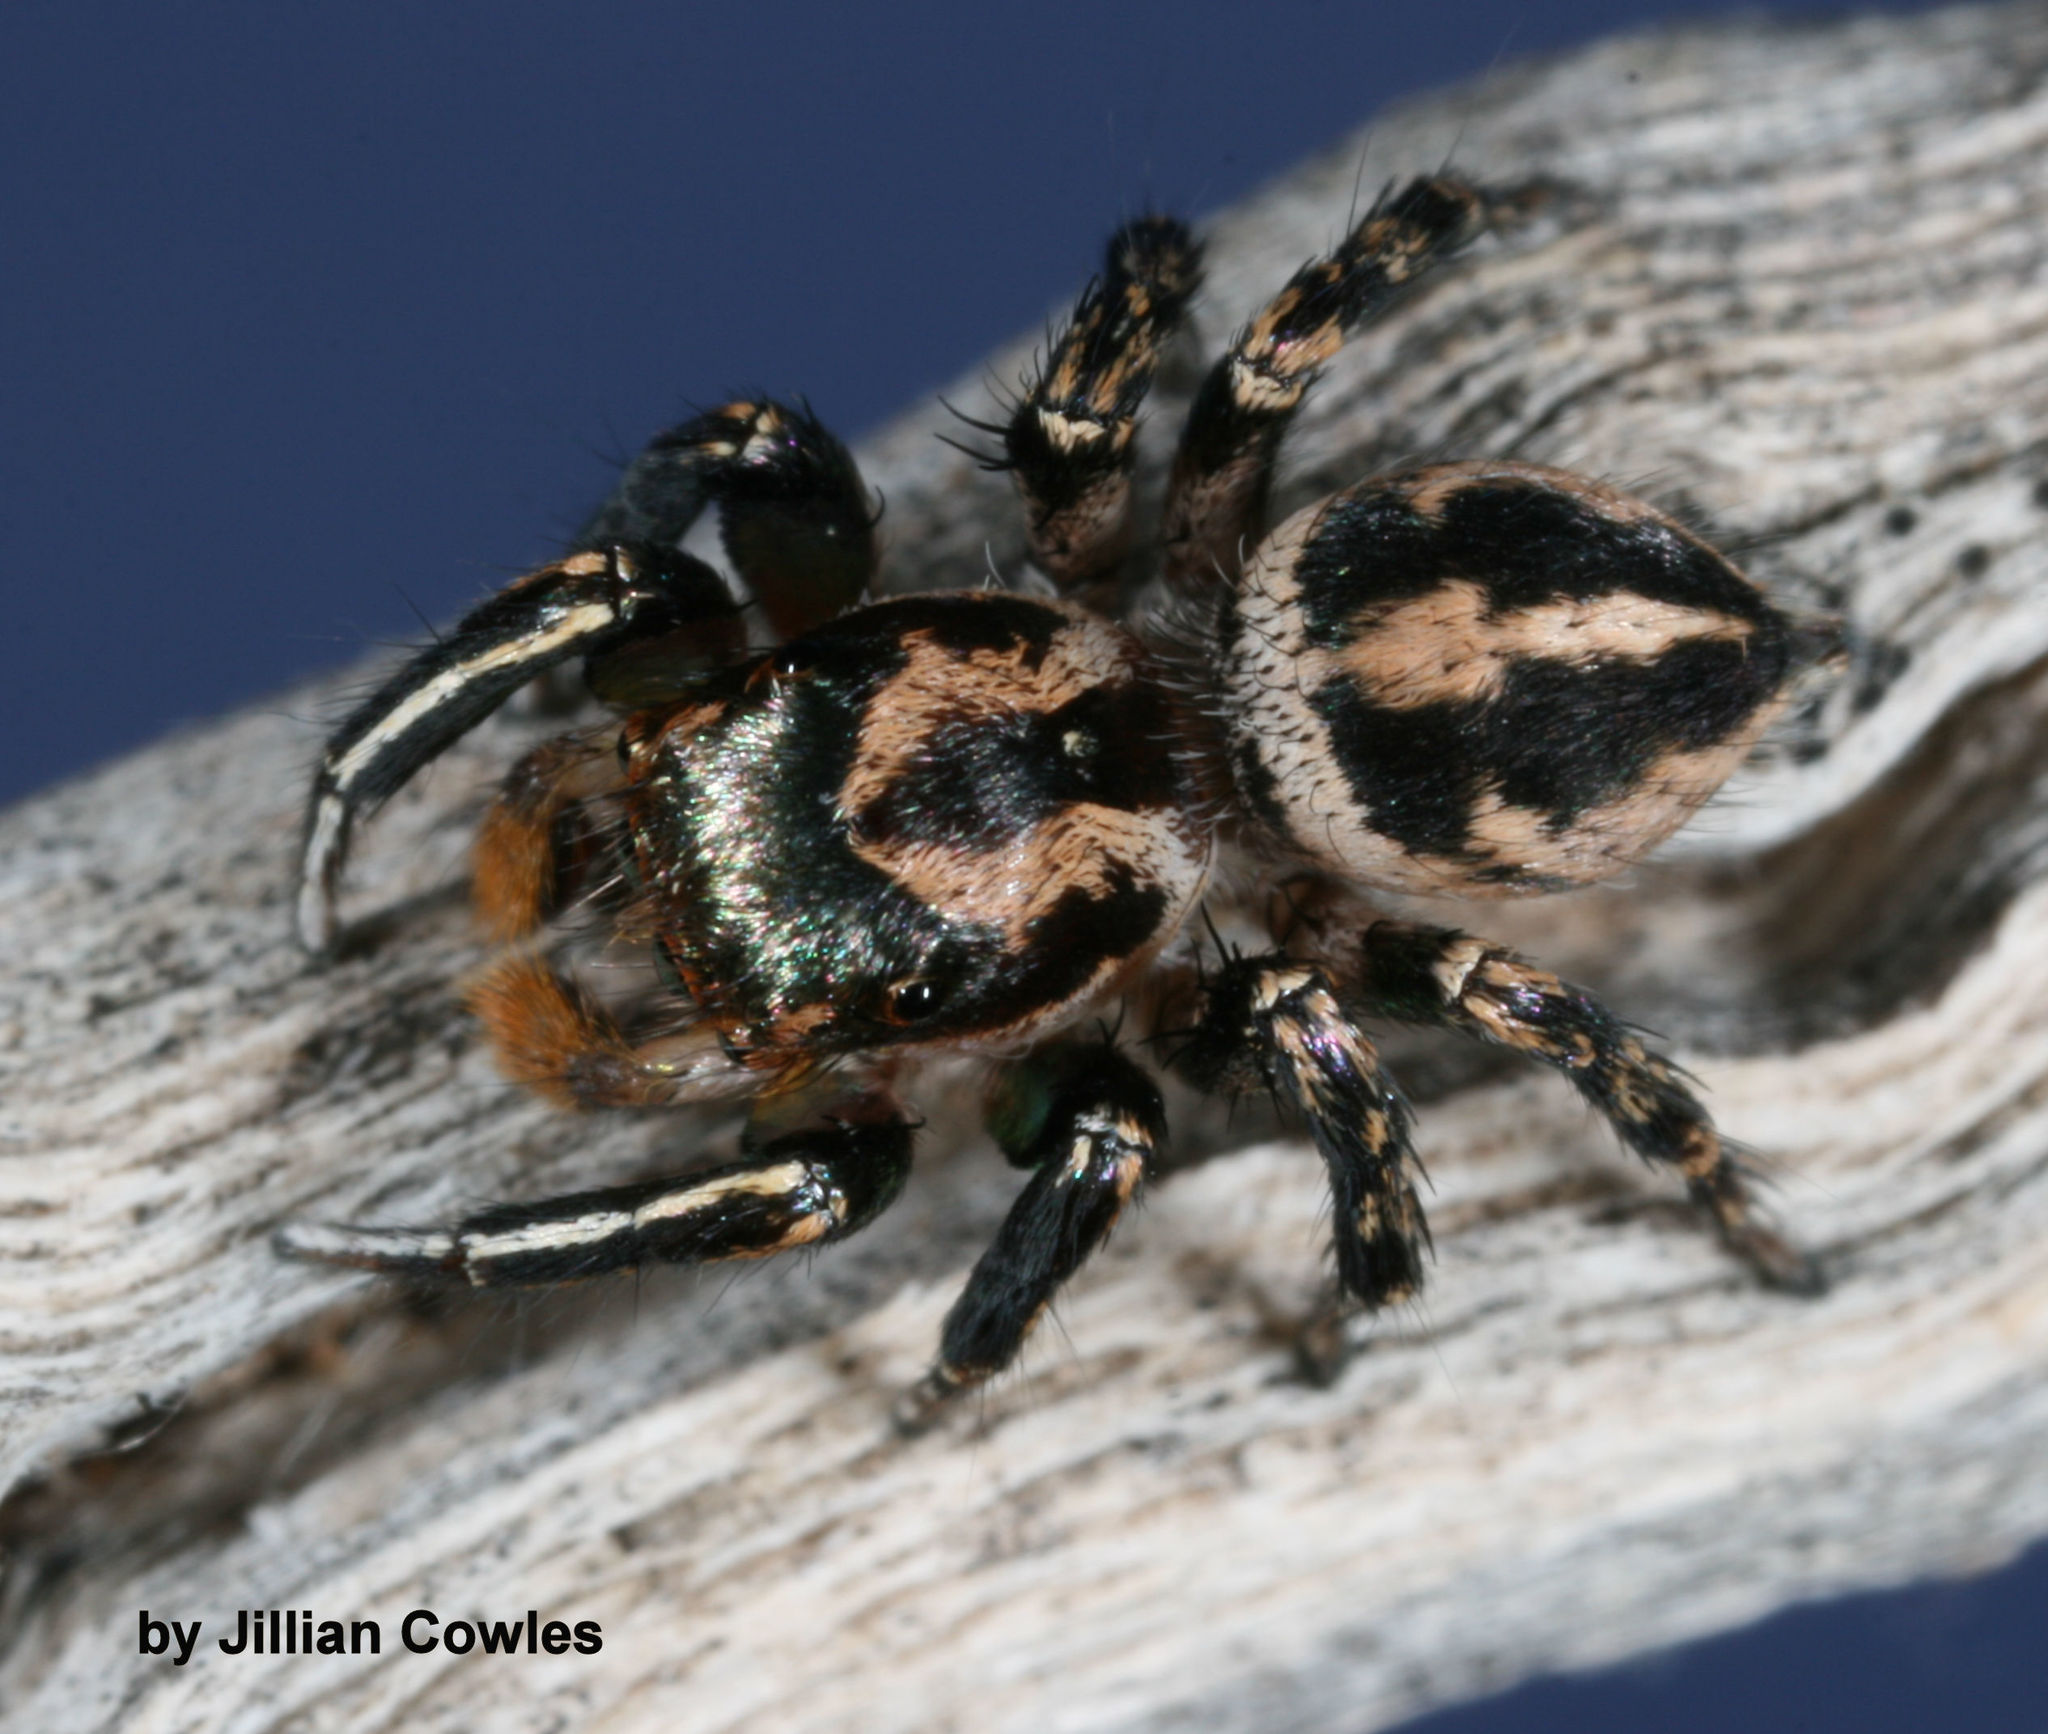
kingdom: Animalia
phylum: Arthropoda
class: Arachnida
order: Araneae
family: Salticidae
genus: Habronattus
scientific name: Habronattus hallani
